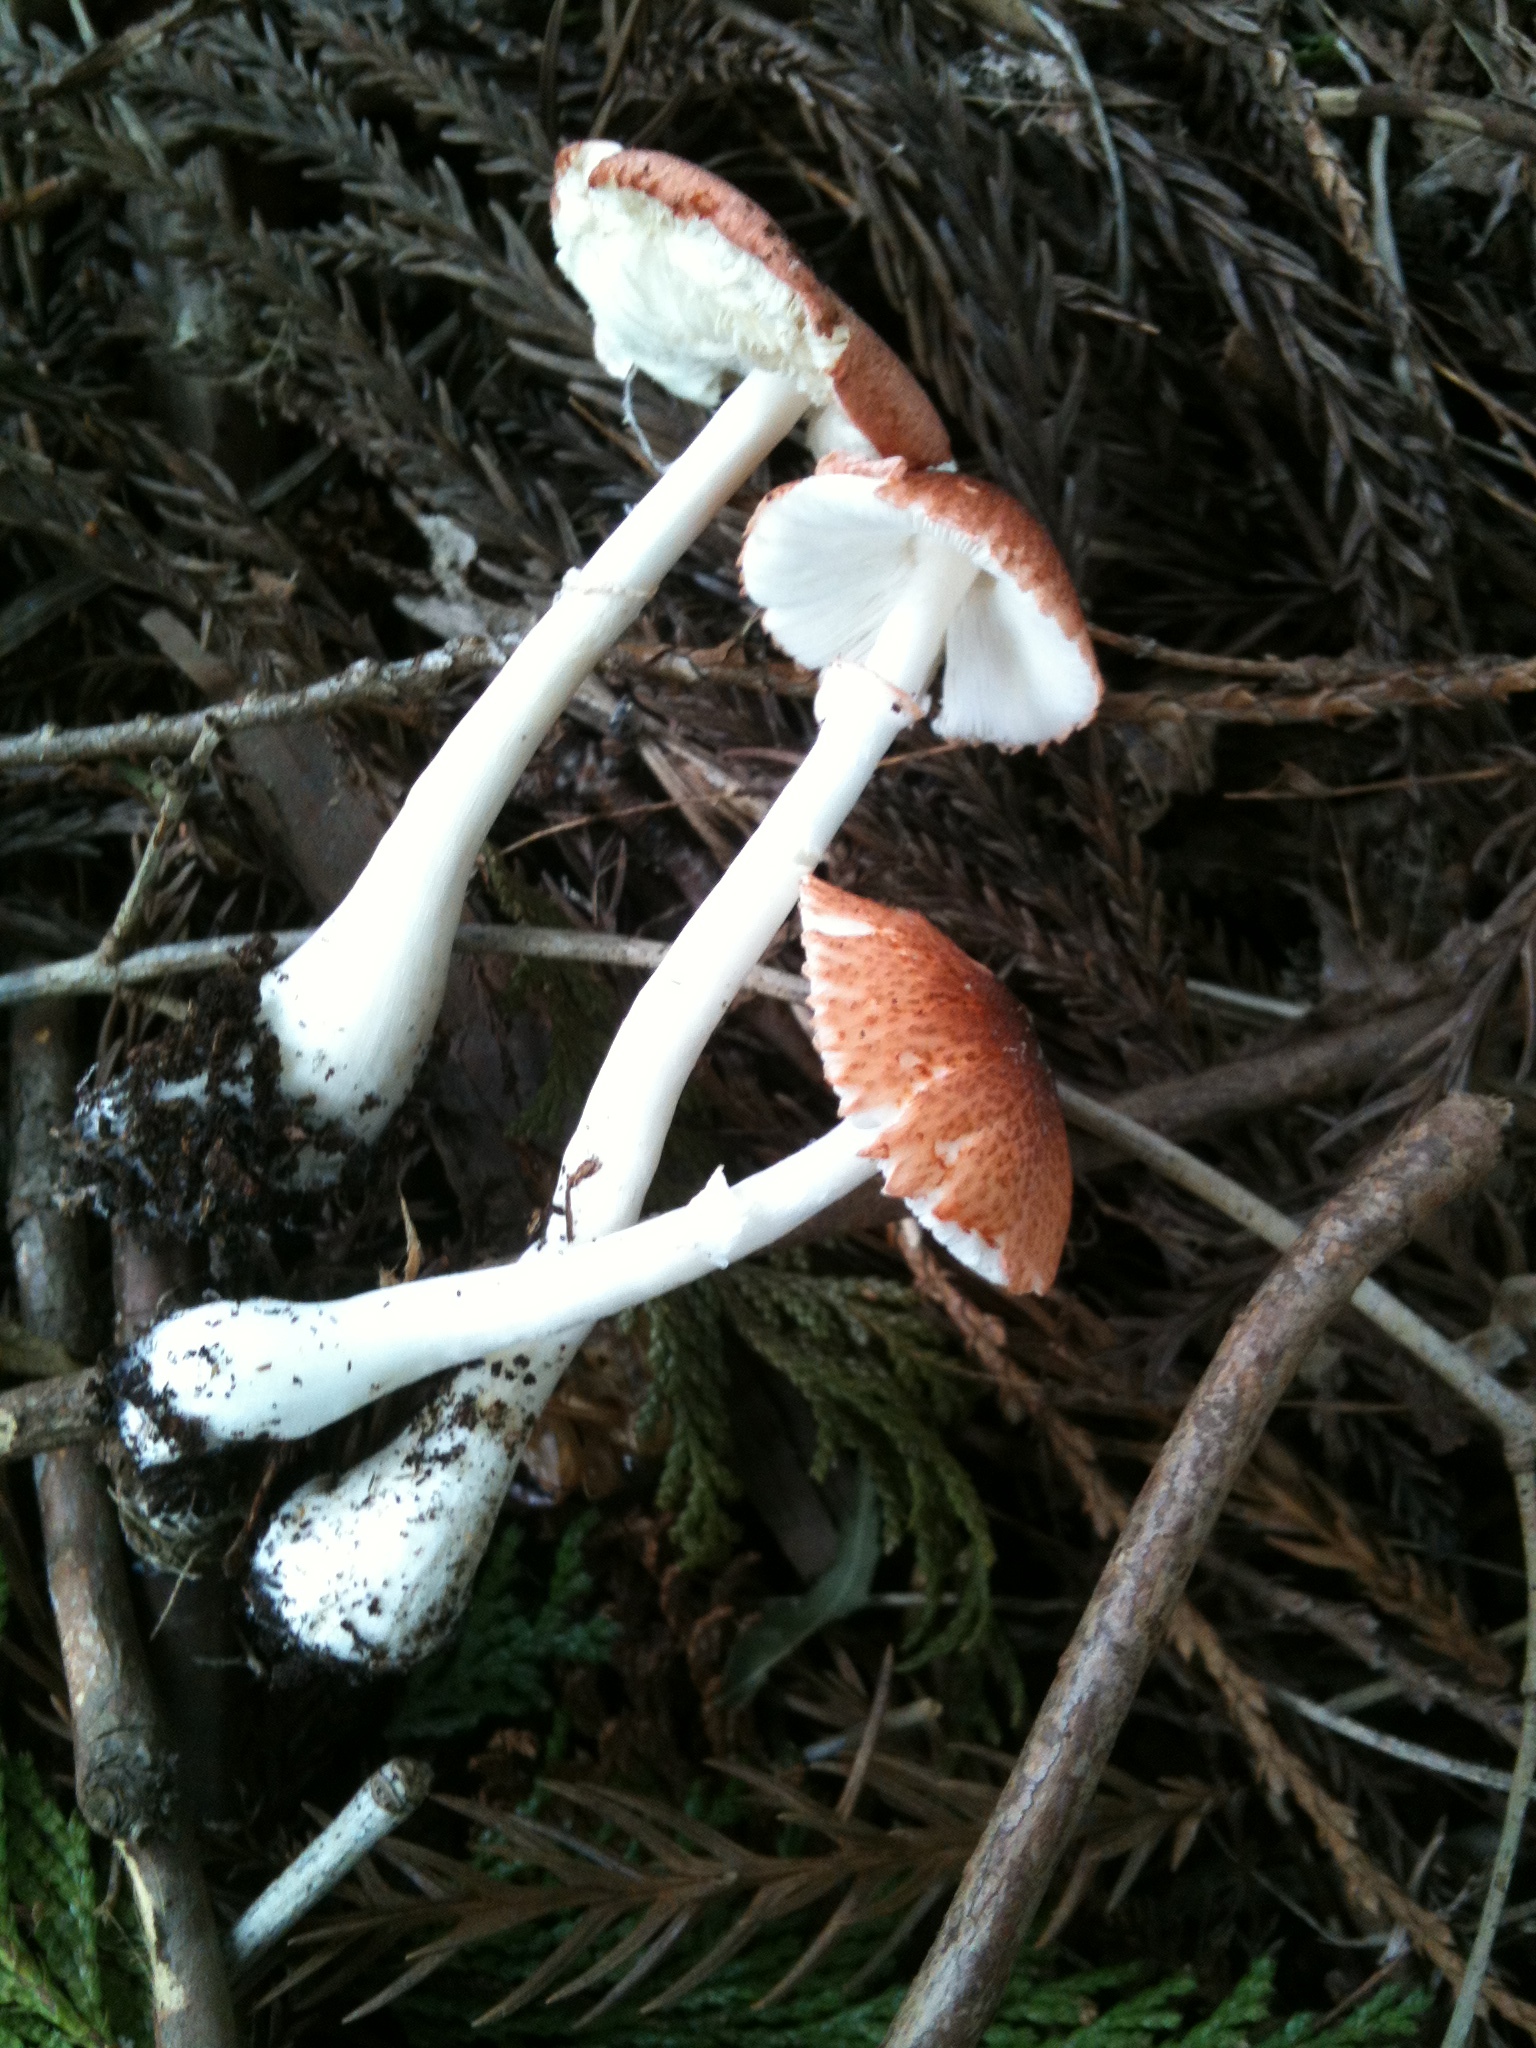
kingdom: Fungi
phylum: Basidiomycota
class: Agaricomycetes
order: Agaricales
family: Agaricaceae
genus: Leucoagaricus
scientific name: Leucoagaricus rubrotinctus
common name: Ruby dapperling
